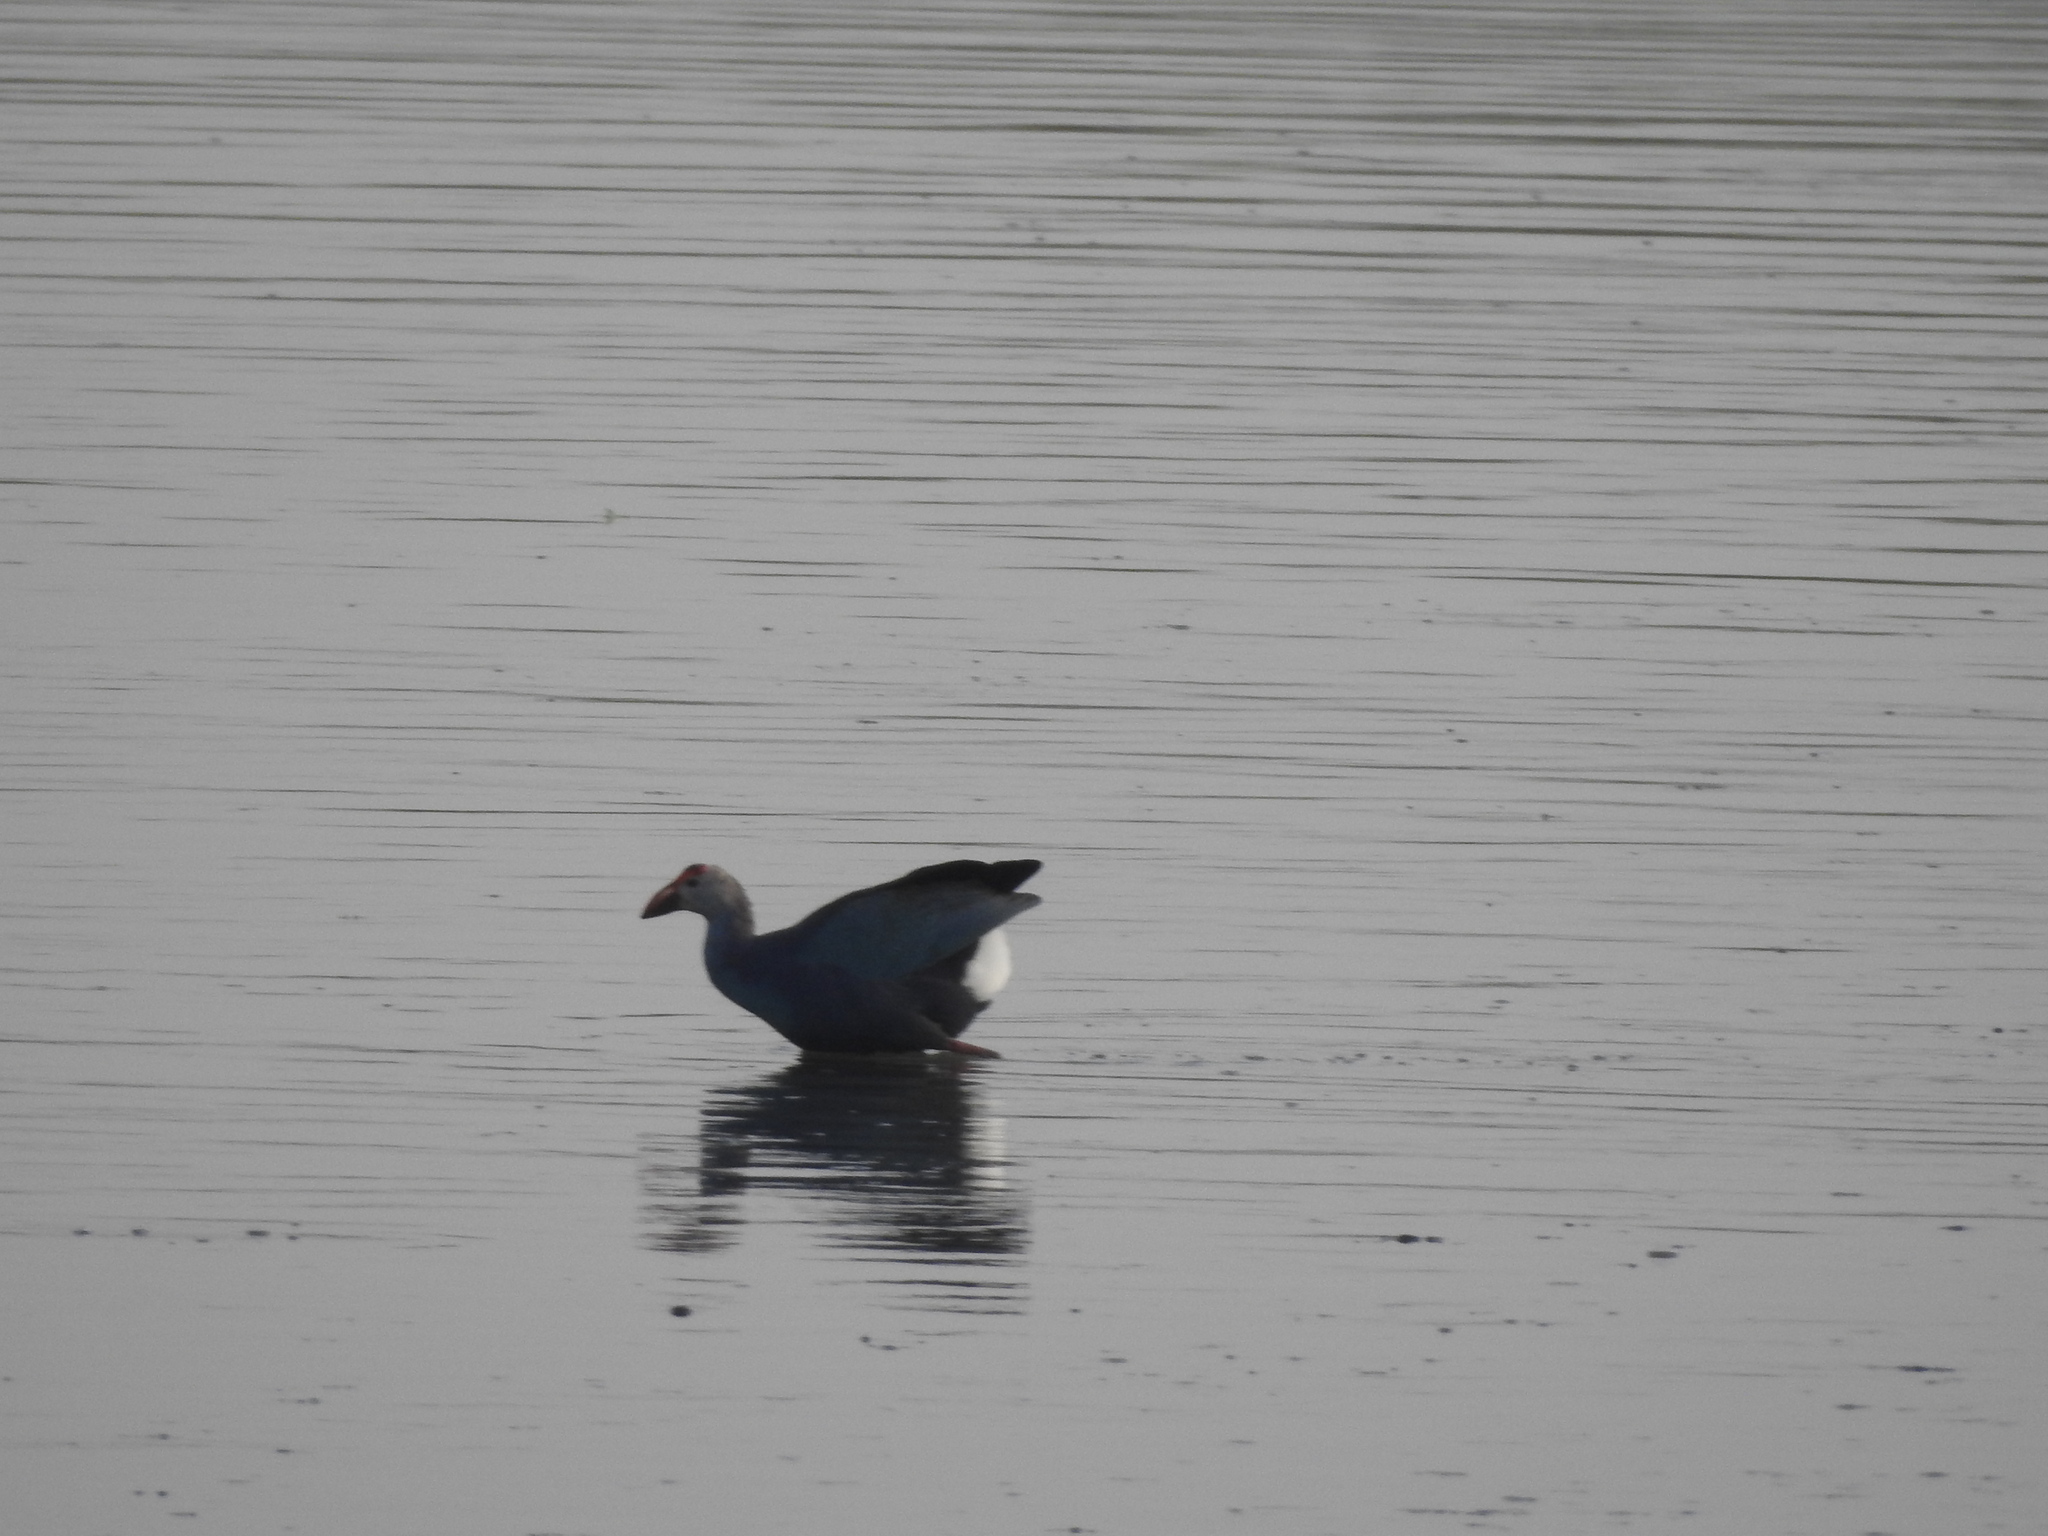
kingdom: Animalia
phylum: Chordata
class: Aves
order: Gruiformes
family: Rallidae
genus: Porphyrio
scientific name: Porphyrio porphyrio
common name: Purple swamphen
